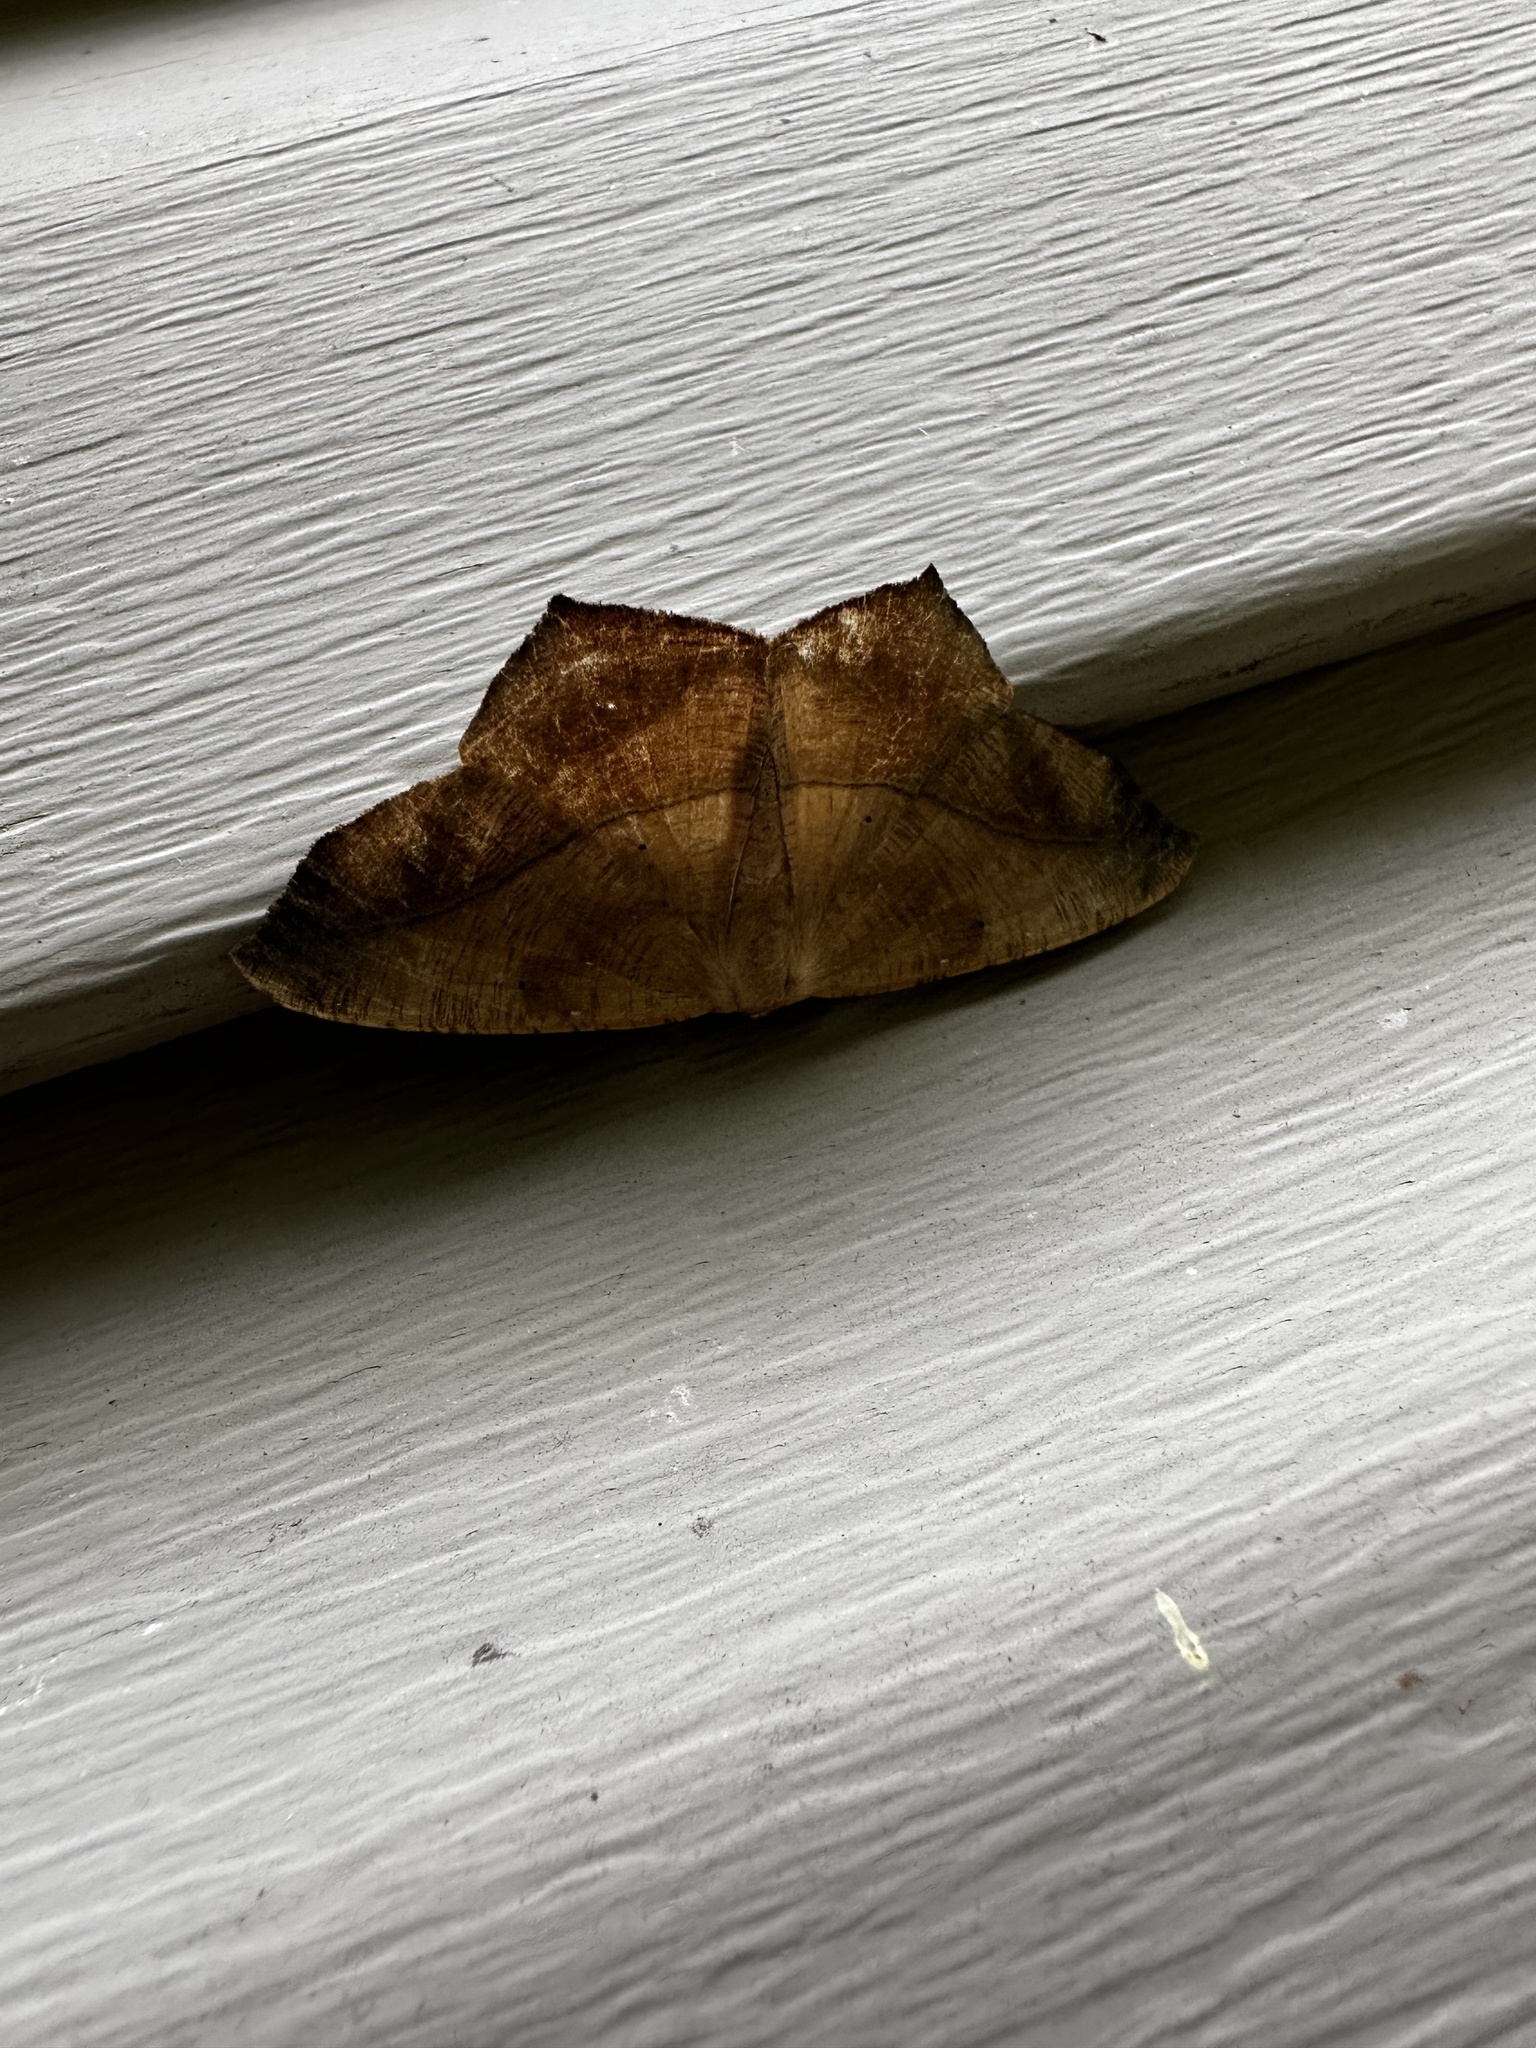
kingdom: Animalia
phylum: Arthropoda
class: Insecta
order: Lepidoptera
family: Geometridae
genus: Prochoerodes
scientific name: Prochoerodes lineola
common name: Large maple spanworm
